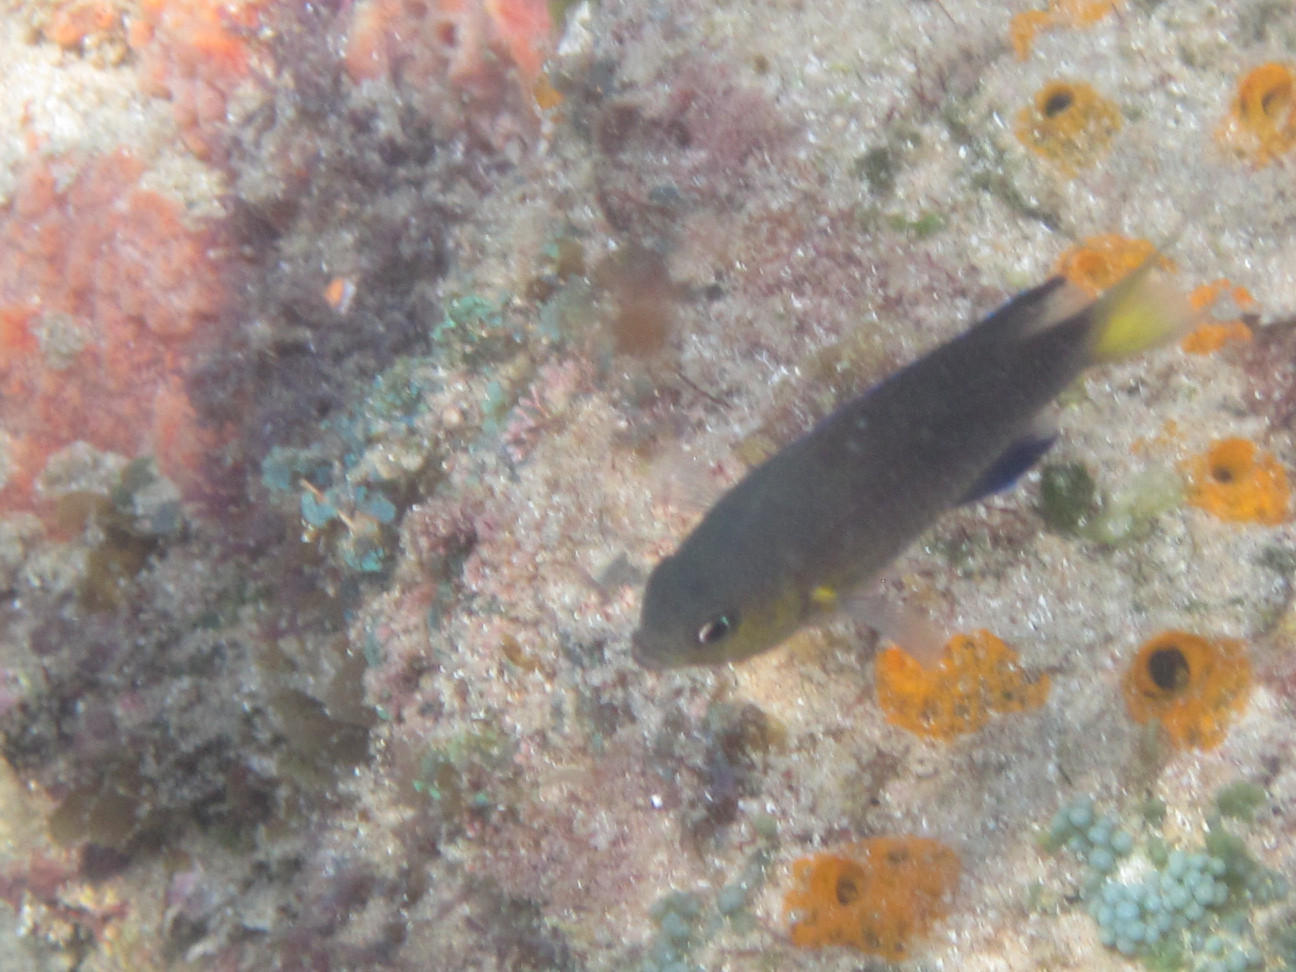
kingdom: Animalia
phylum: Chordata
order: Perciformes
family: Pomacentridae
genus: Chromis
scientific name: Chromis nigrura
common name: Blacktail chromis
